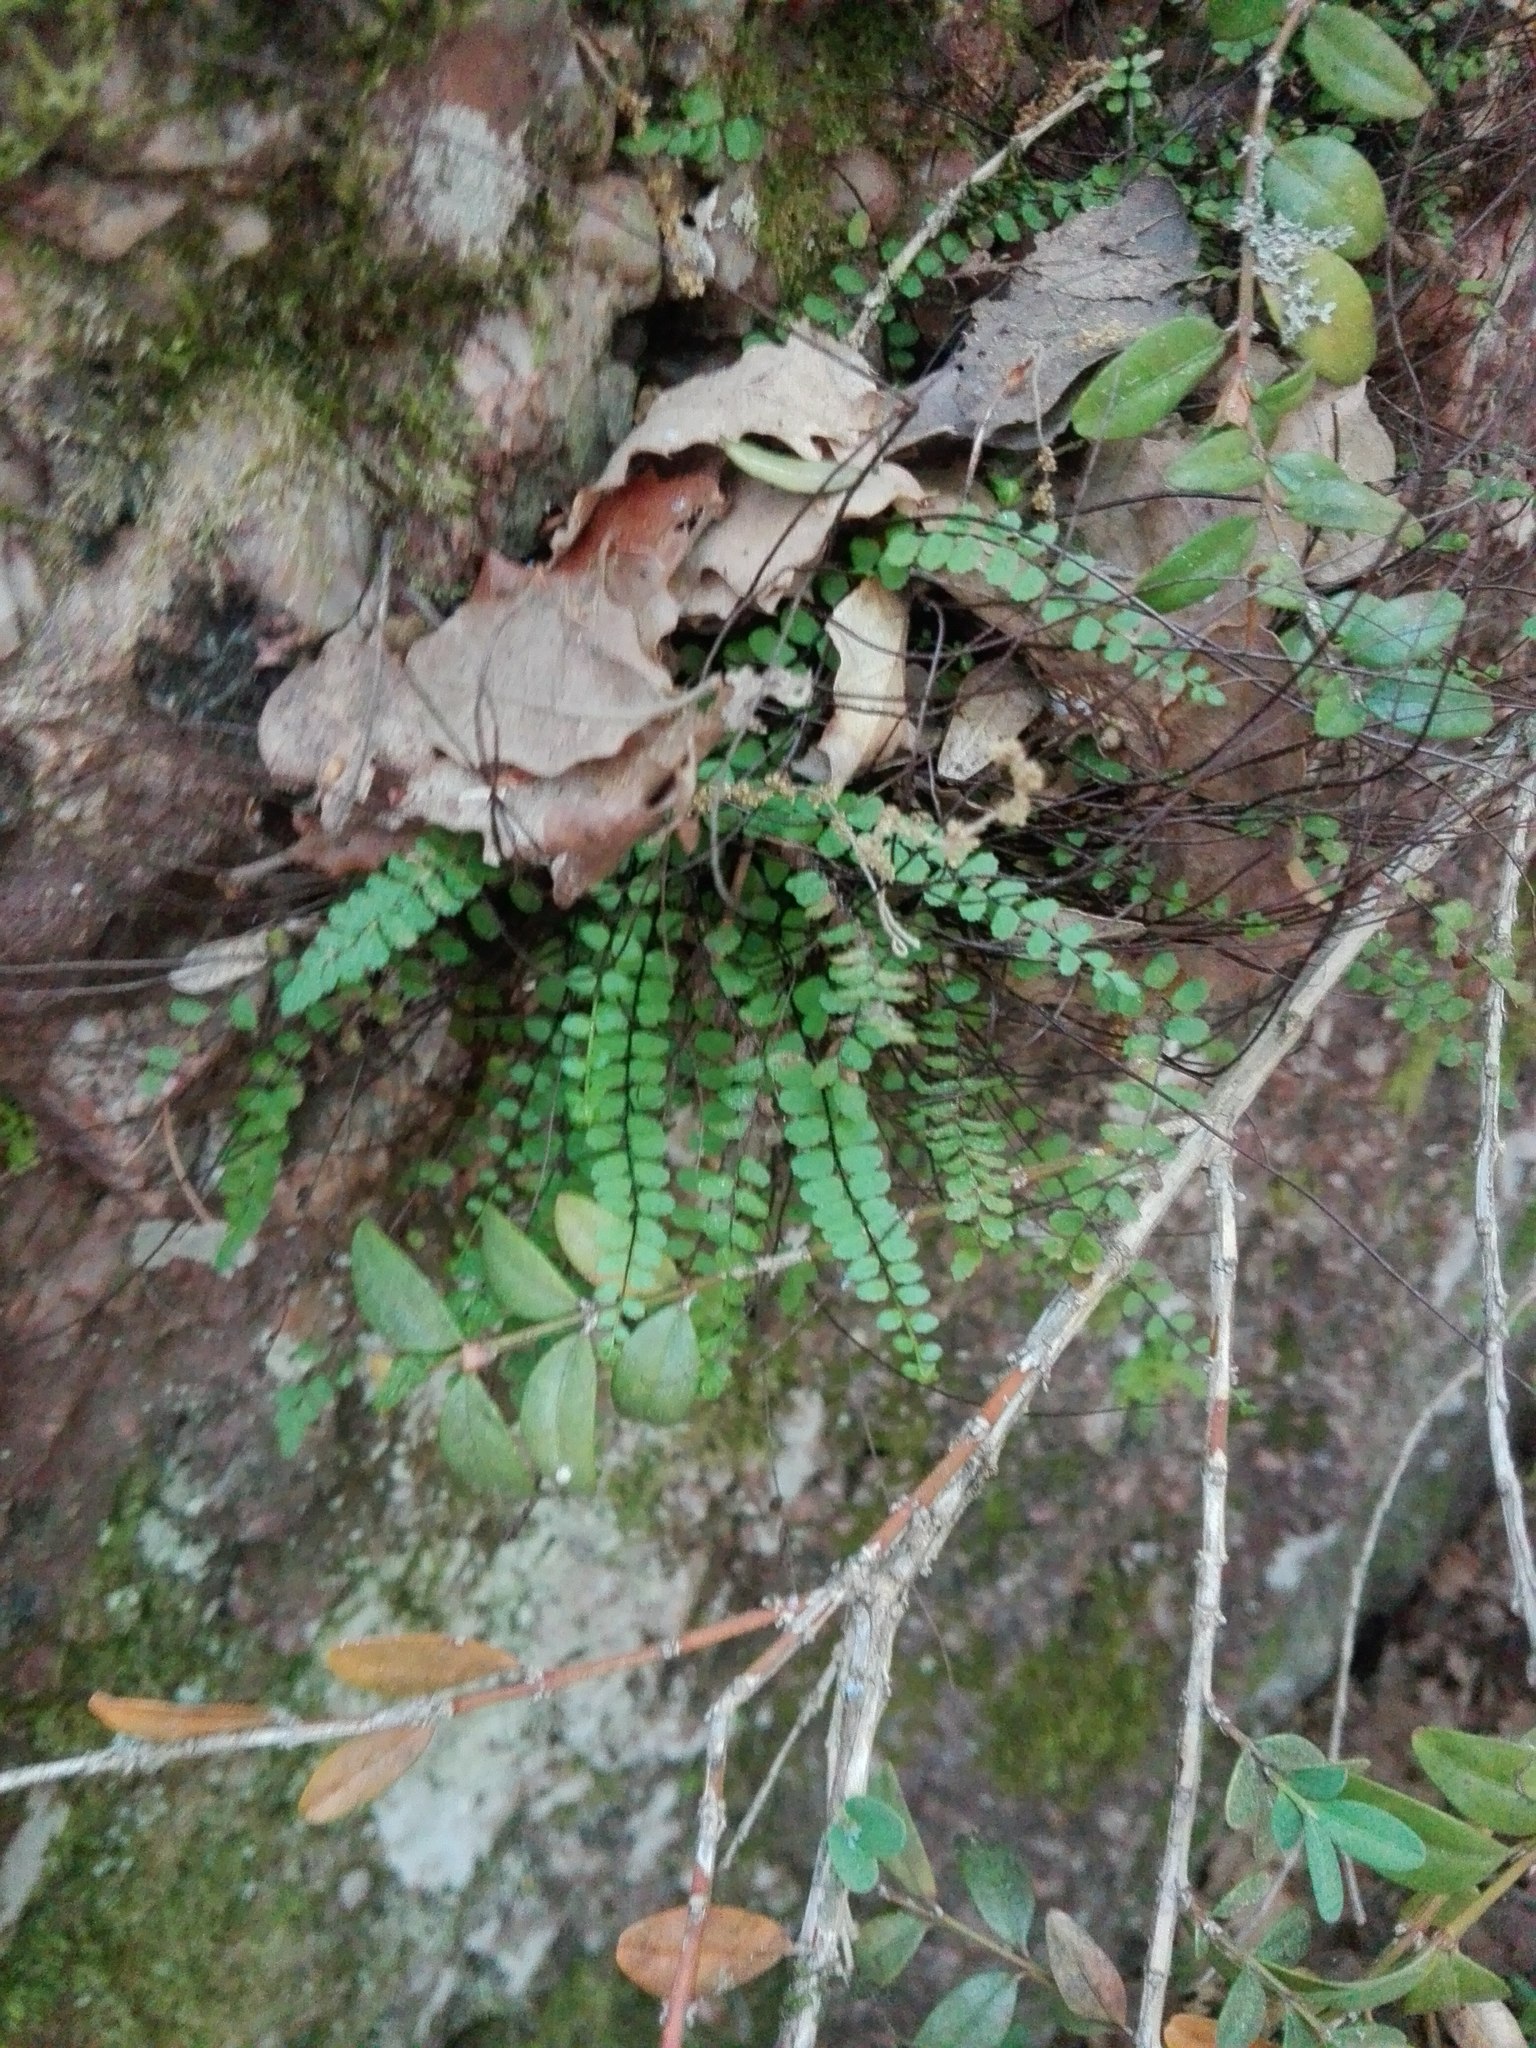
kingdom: Plantae
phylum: Tracheophyta
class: Polypodiopsida
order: Polypodiales
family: Aspleniaceae
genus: Asplenium
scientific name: Asplenium trichomanes
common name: Maidenhair spleenwort
